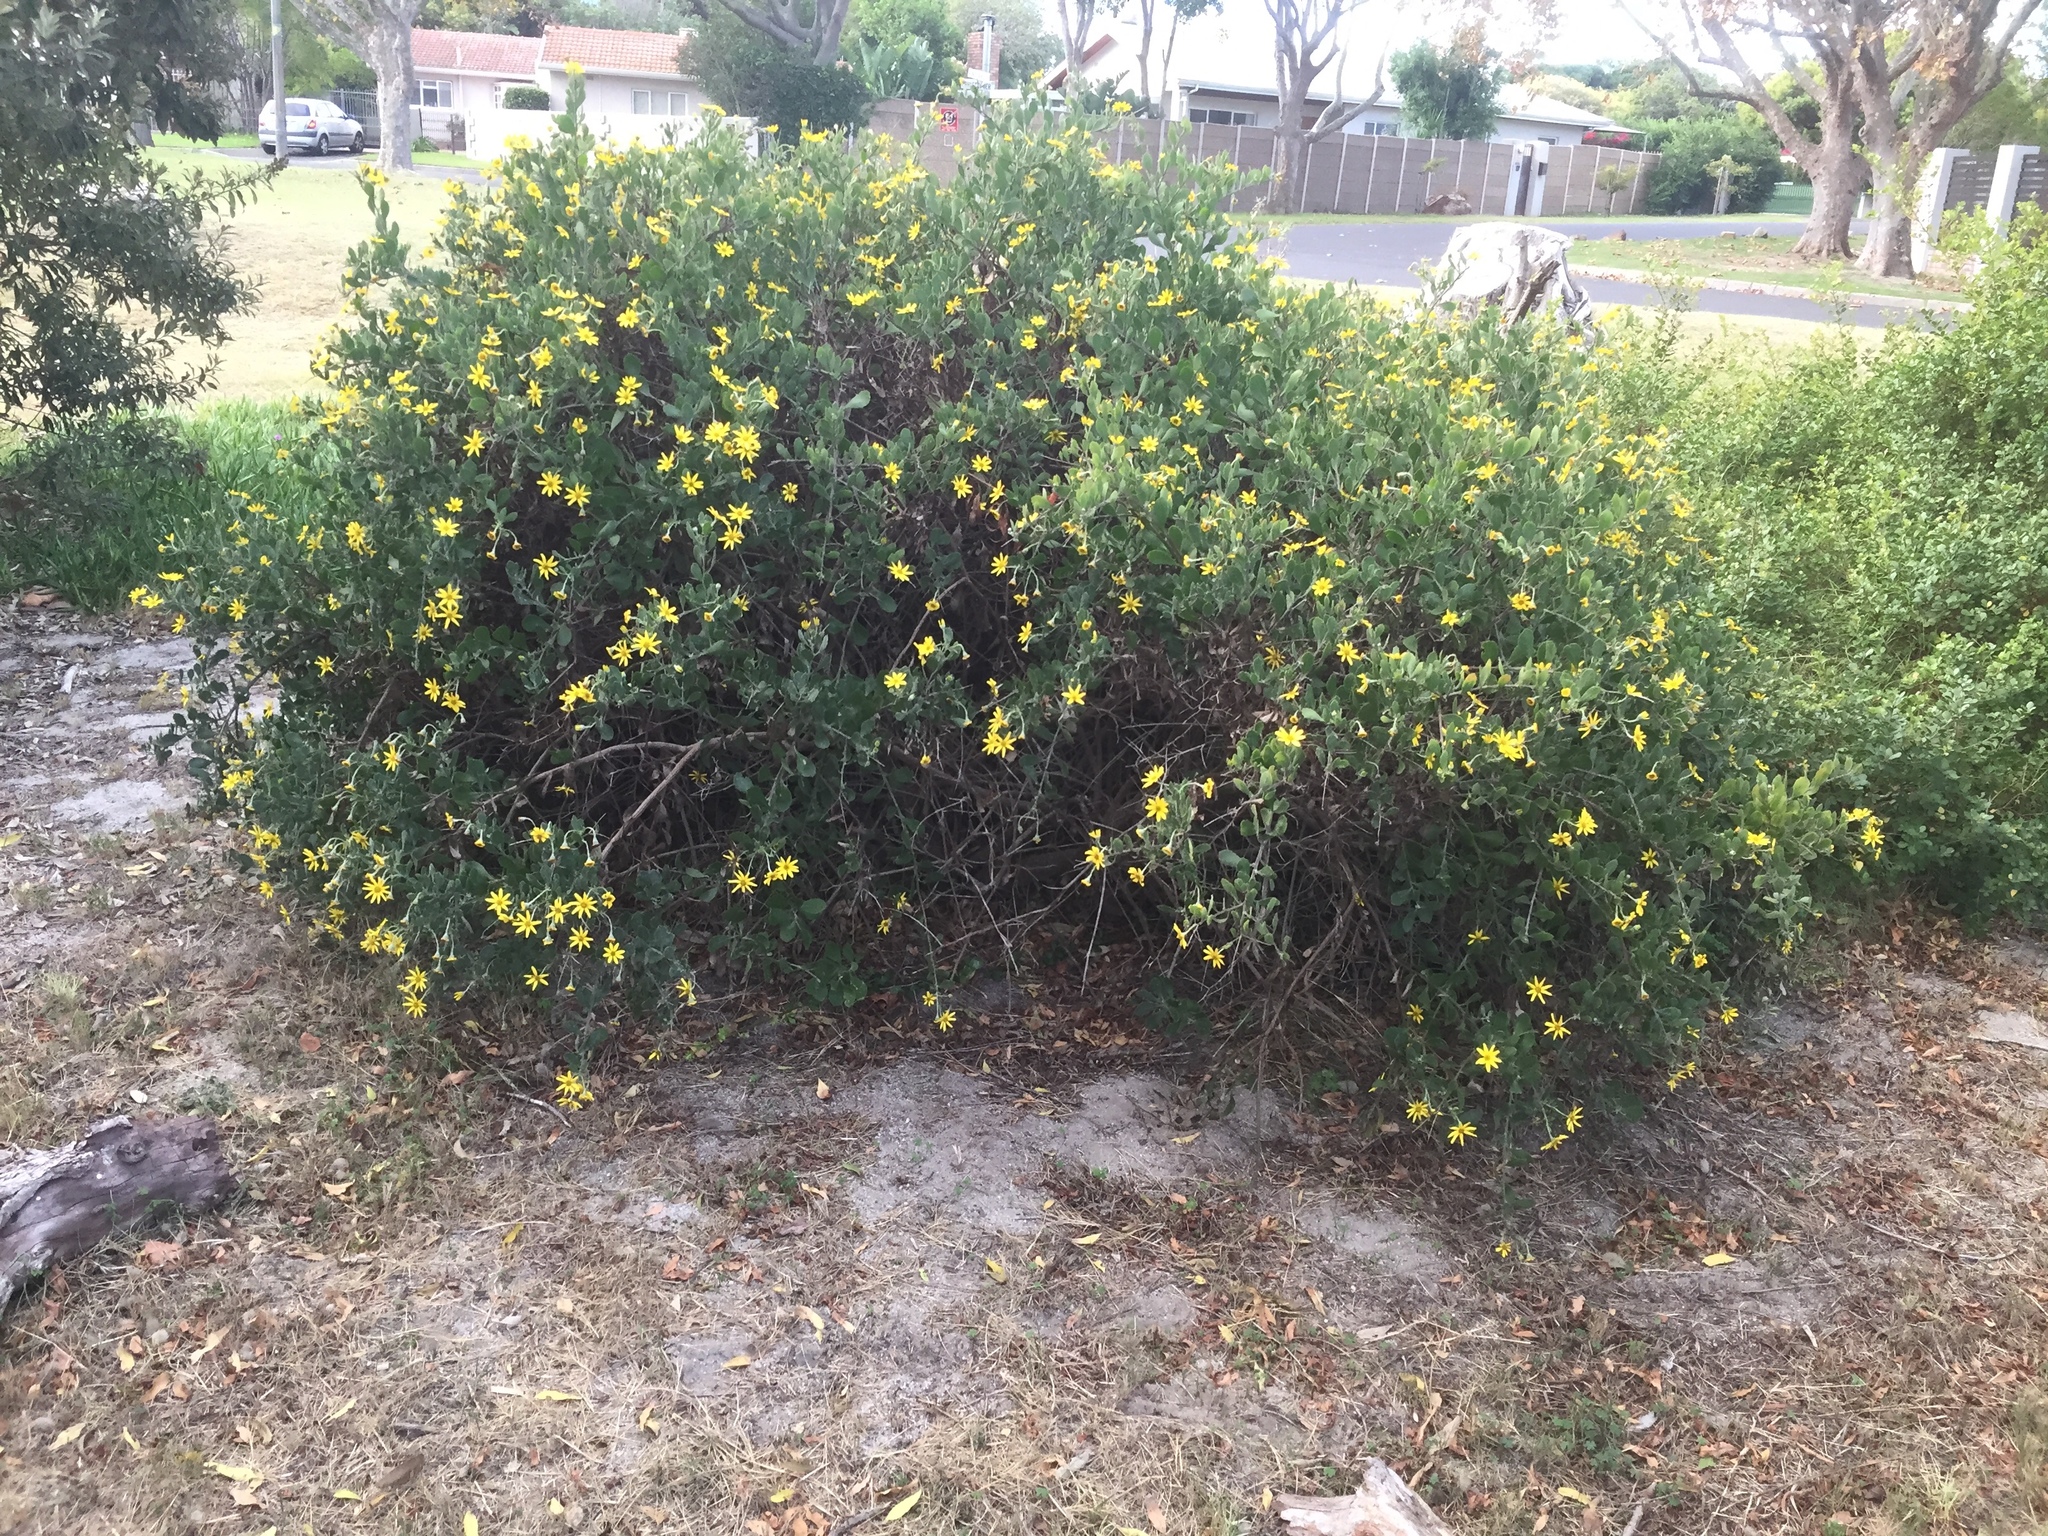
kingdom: Plantae
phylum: Tracheophyta
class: Magnoliopsida
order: Asterales
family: Asteraceae
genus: Osteospermum
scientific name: Osteospermum moniliferum
